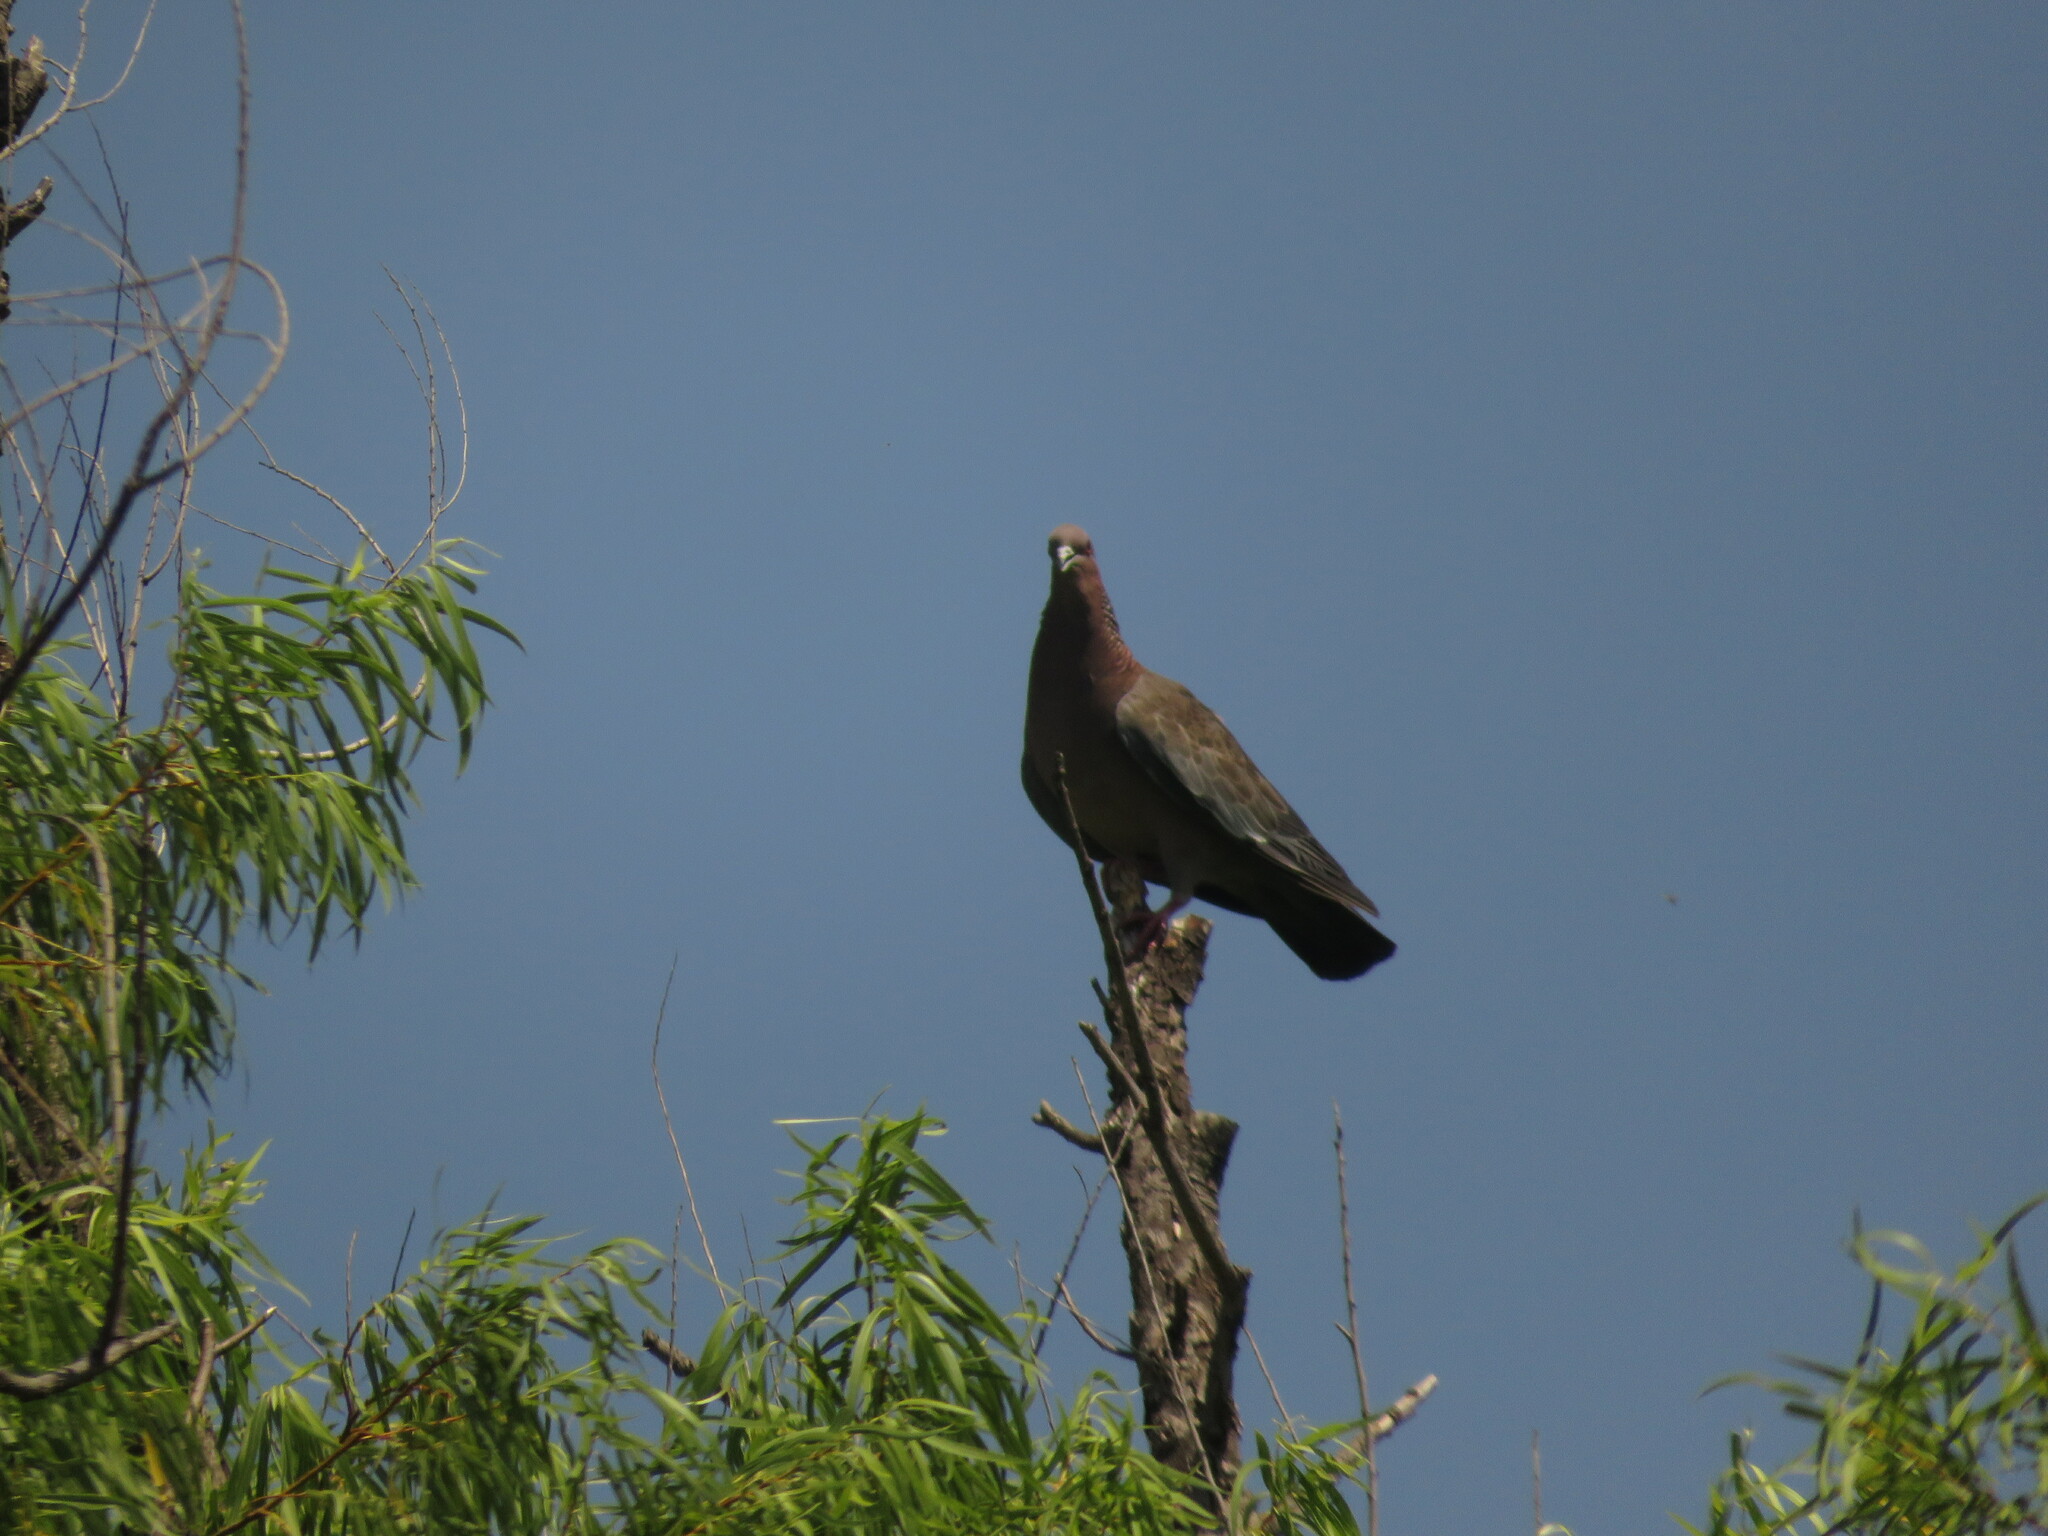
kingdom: Animalia
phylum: Chordata
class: Aves
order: Columbiformes
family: Columbidae
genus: Patagioenas
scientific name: Patagioenas picazuro
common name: Picazuro pigeon
